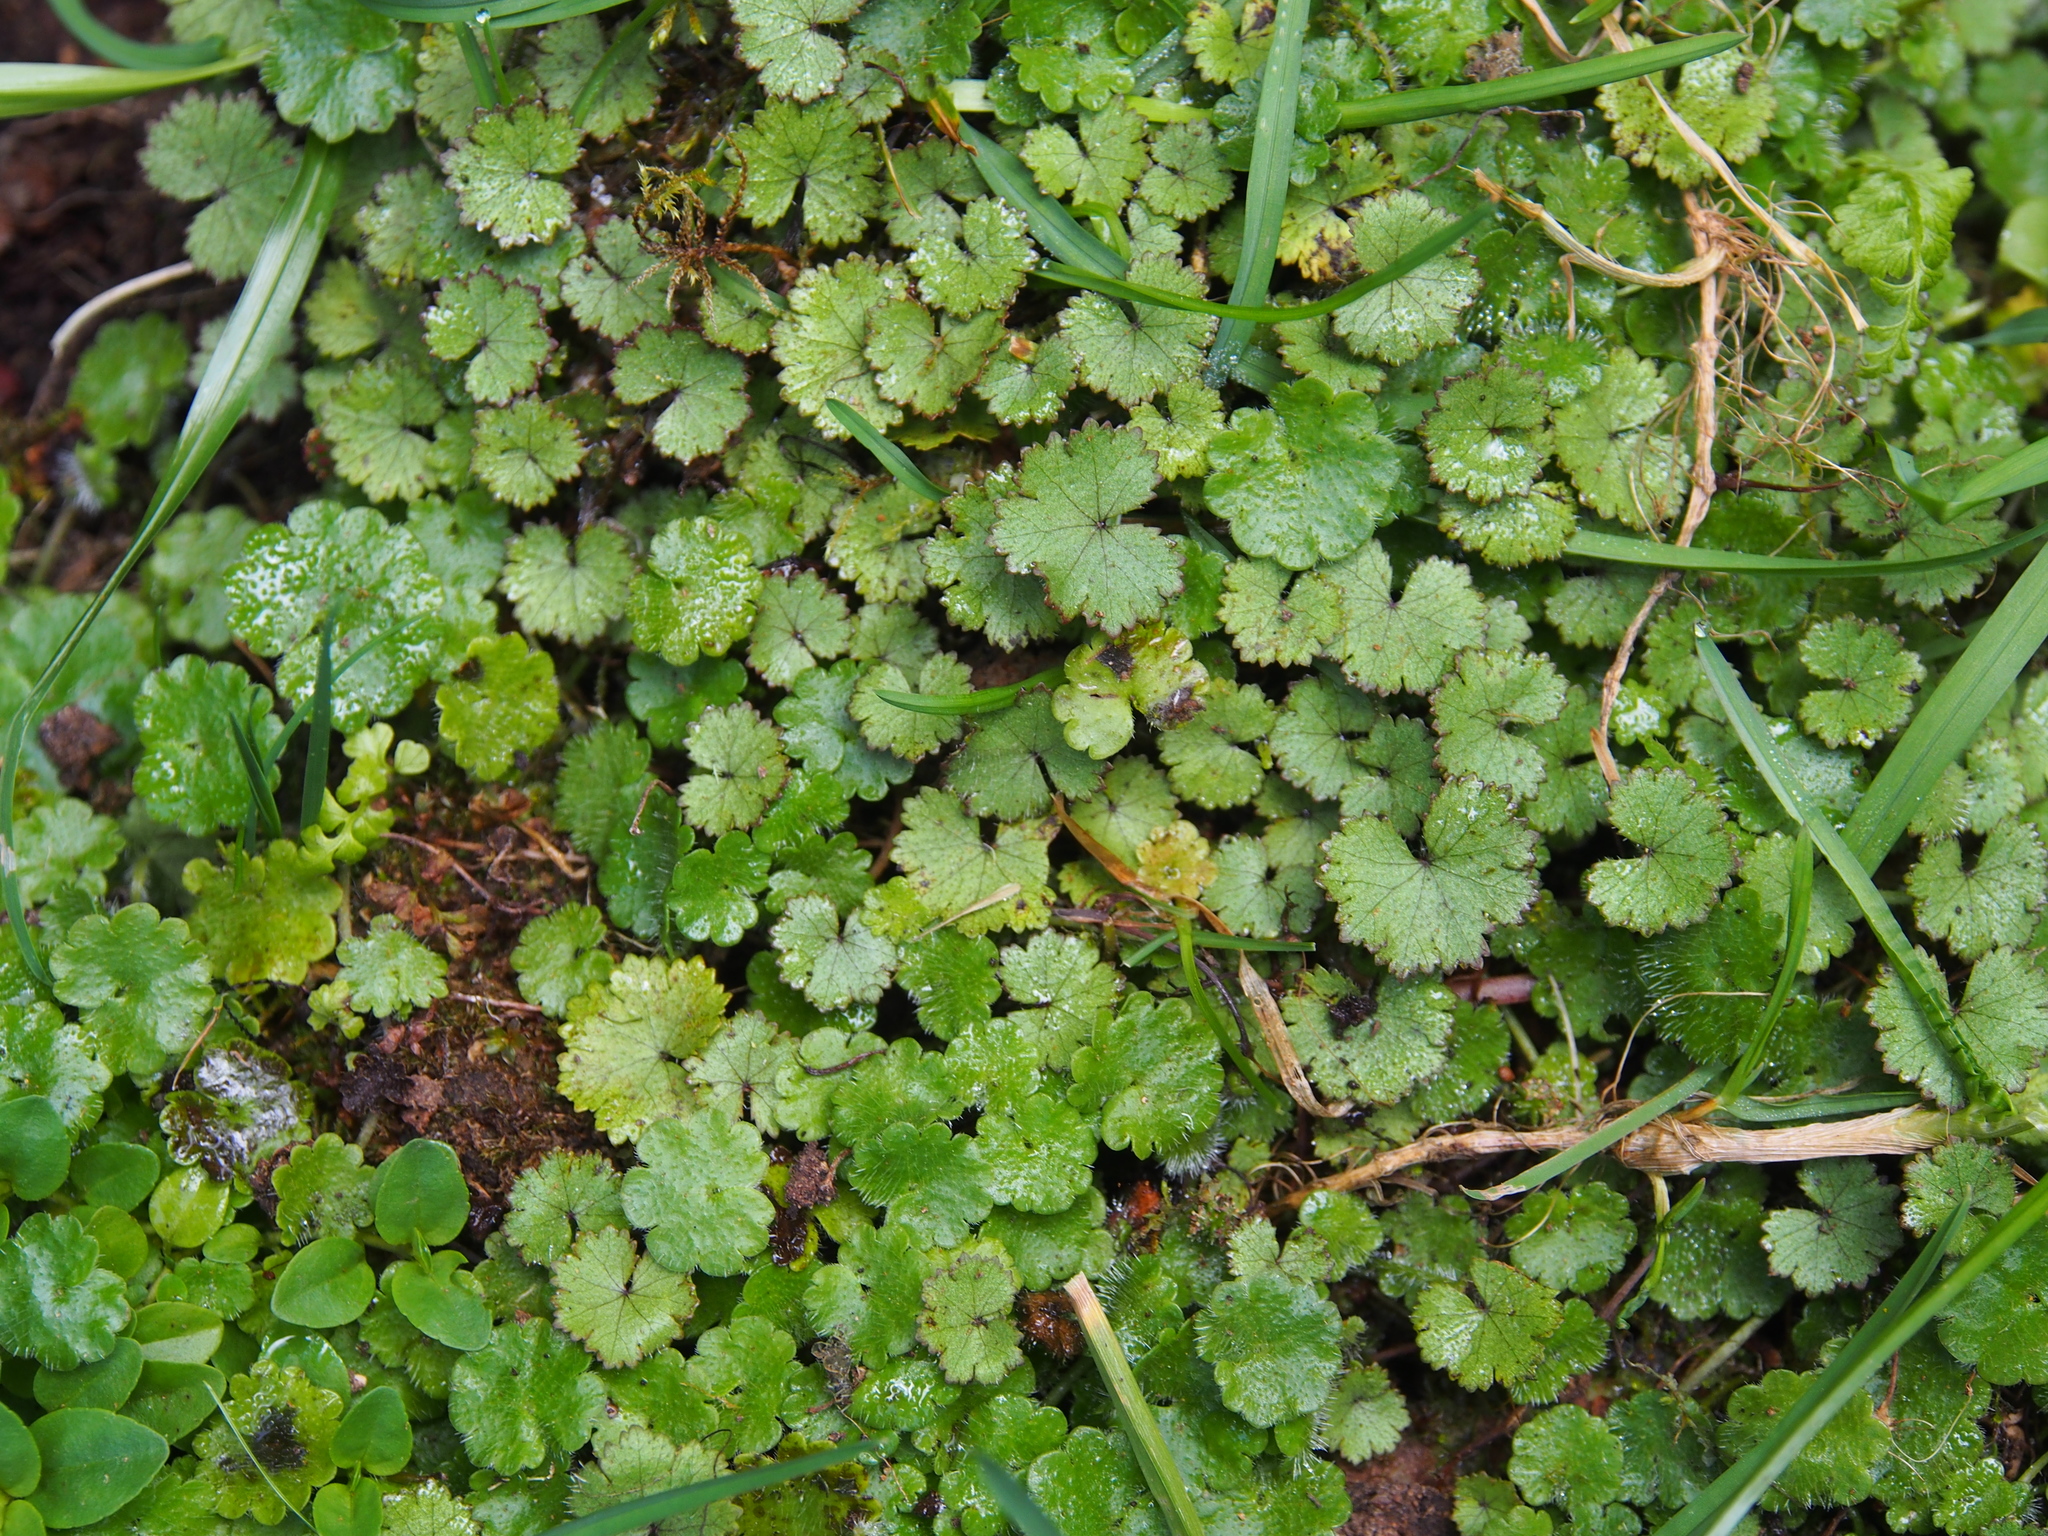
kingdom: Plantae
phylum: Tracheophyta
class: Magnoliopsida
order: Apiales
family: Araliaceae
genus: Hydrocotyle
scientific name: Hydrocotyle moschata
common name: Hairy pennywort
